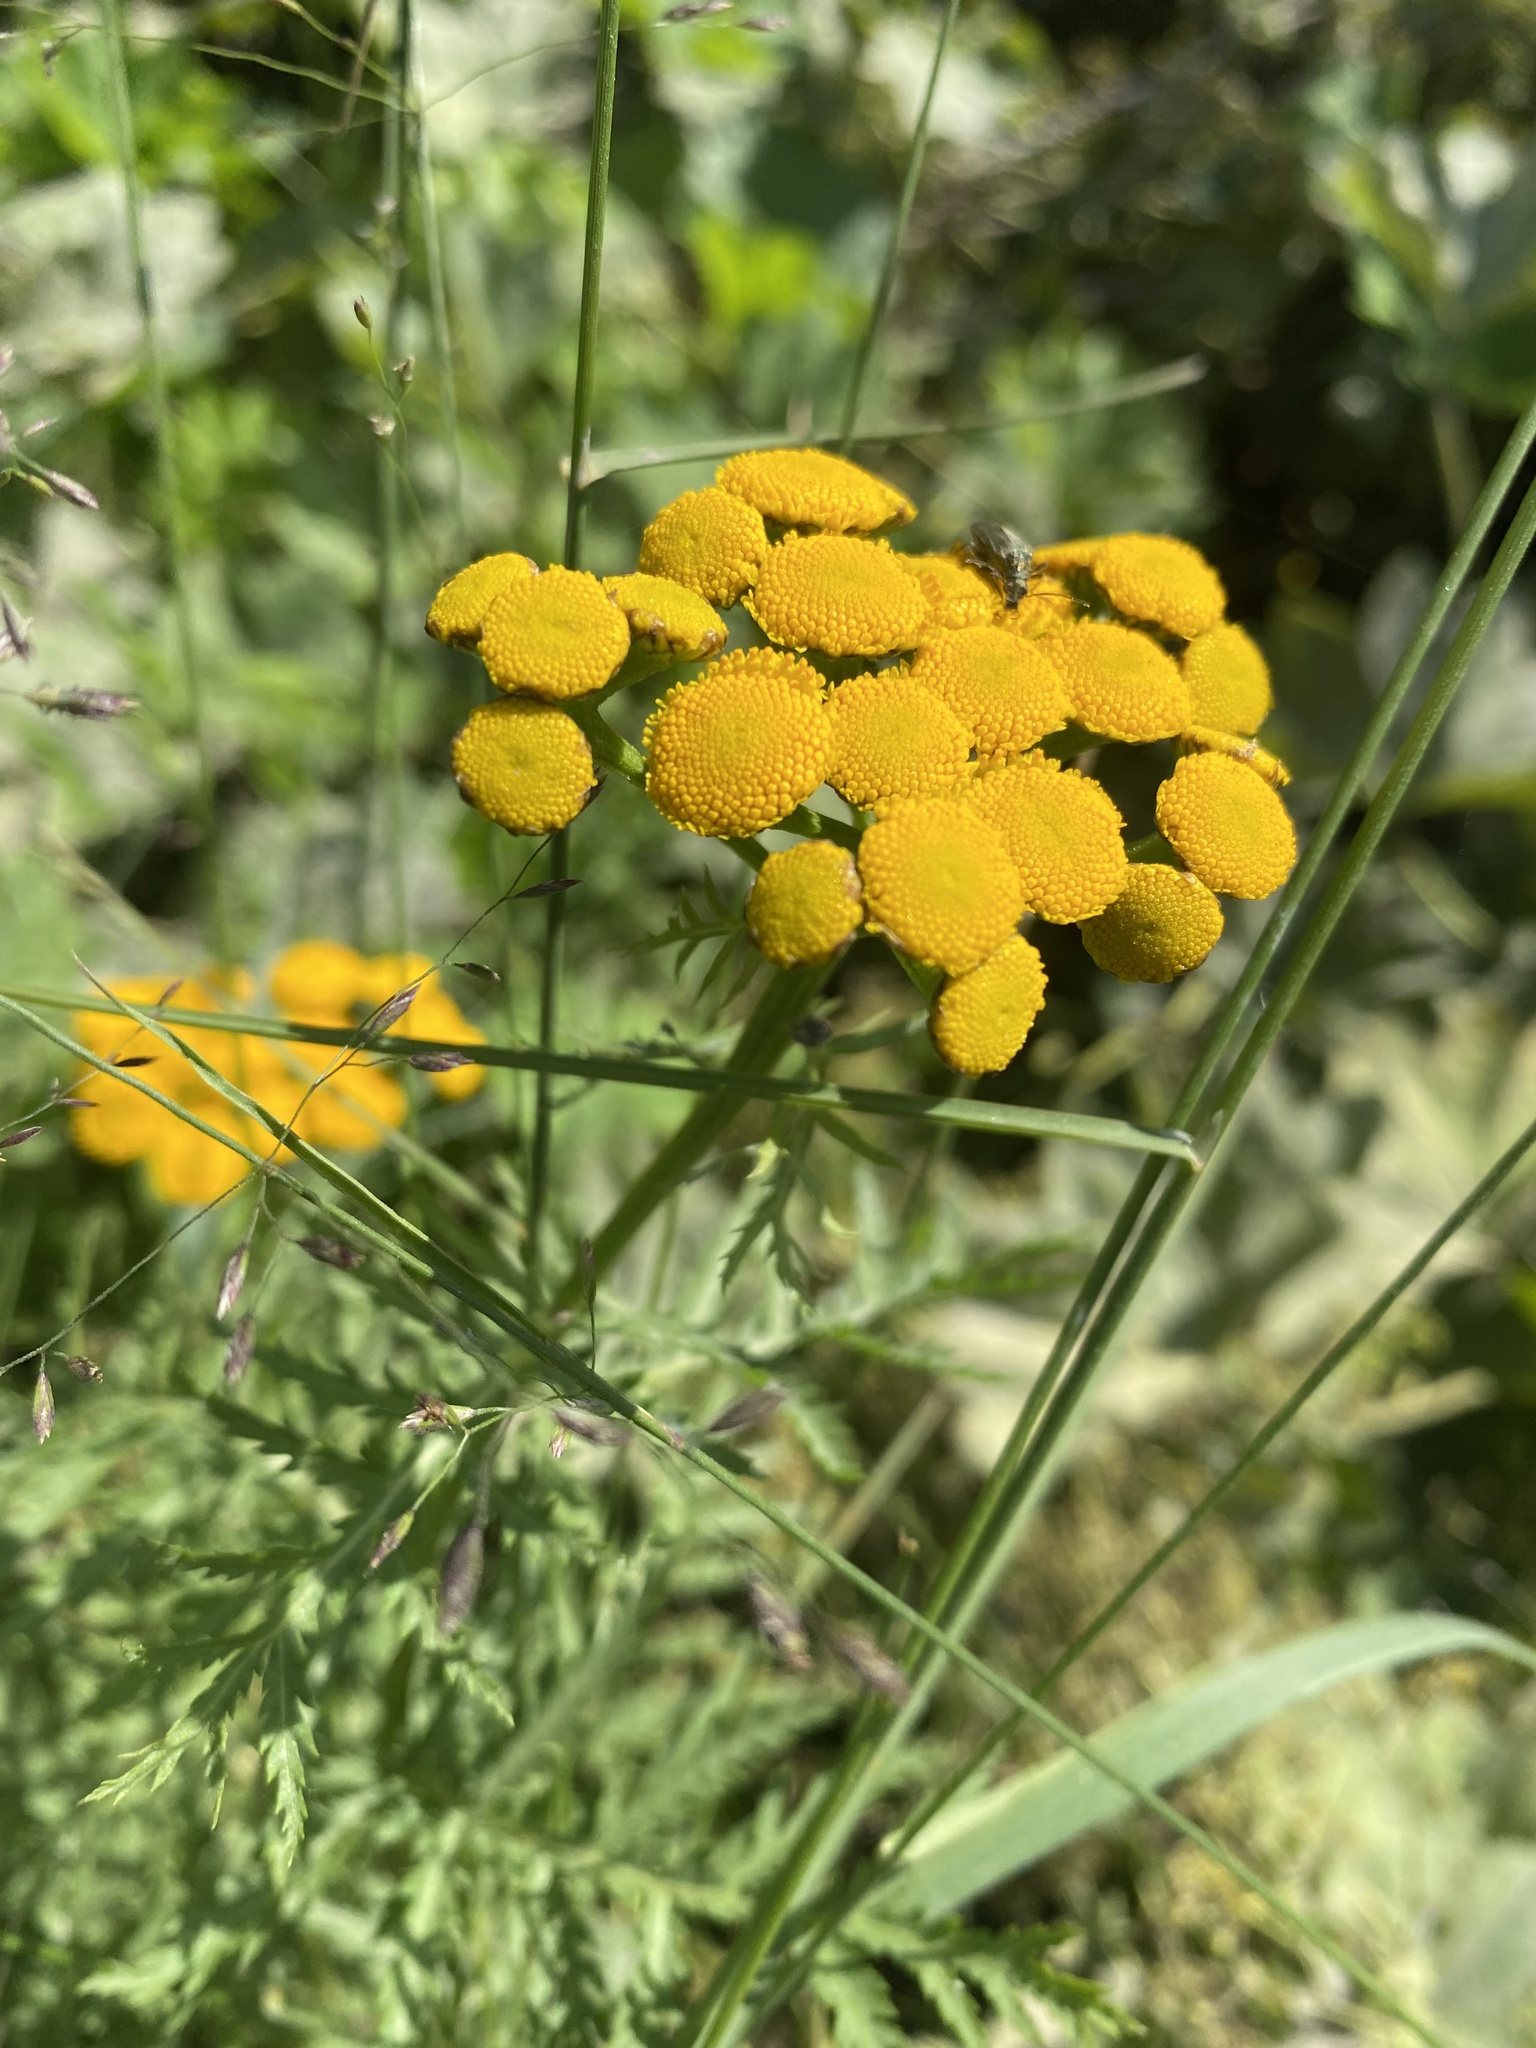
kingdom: Plantae
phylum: Tracheophyta
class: Magnoliopsida
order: Asterales
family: Asteraceae
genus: Tanacetum
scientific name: Tanacetum vulgare
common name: Common tansy
